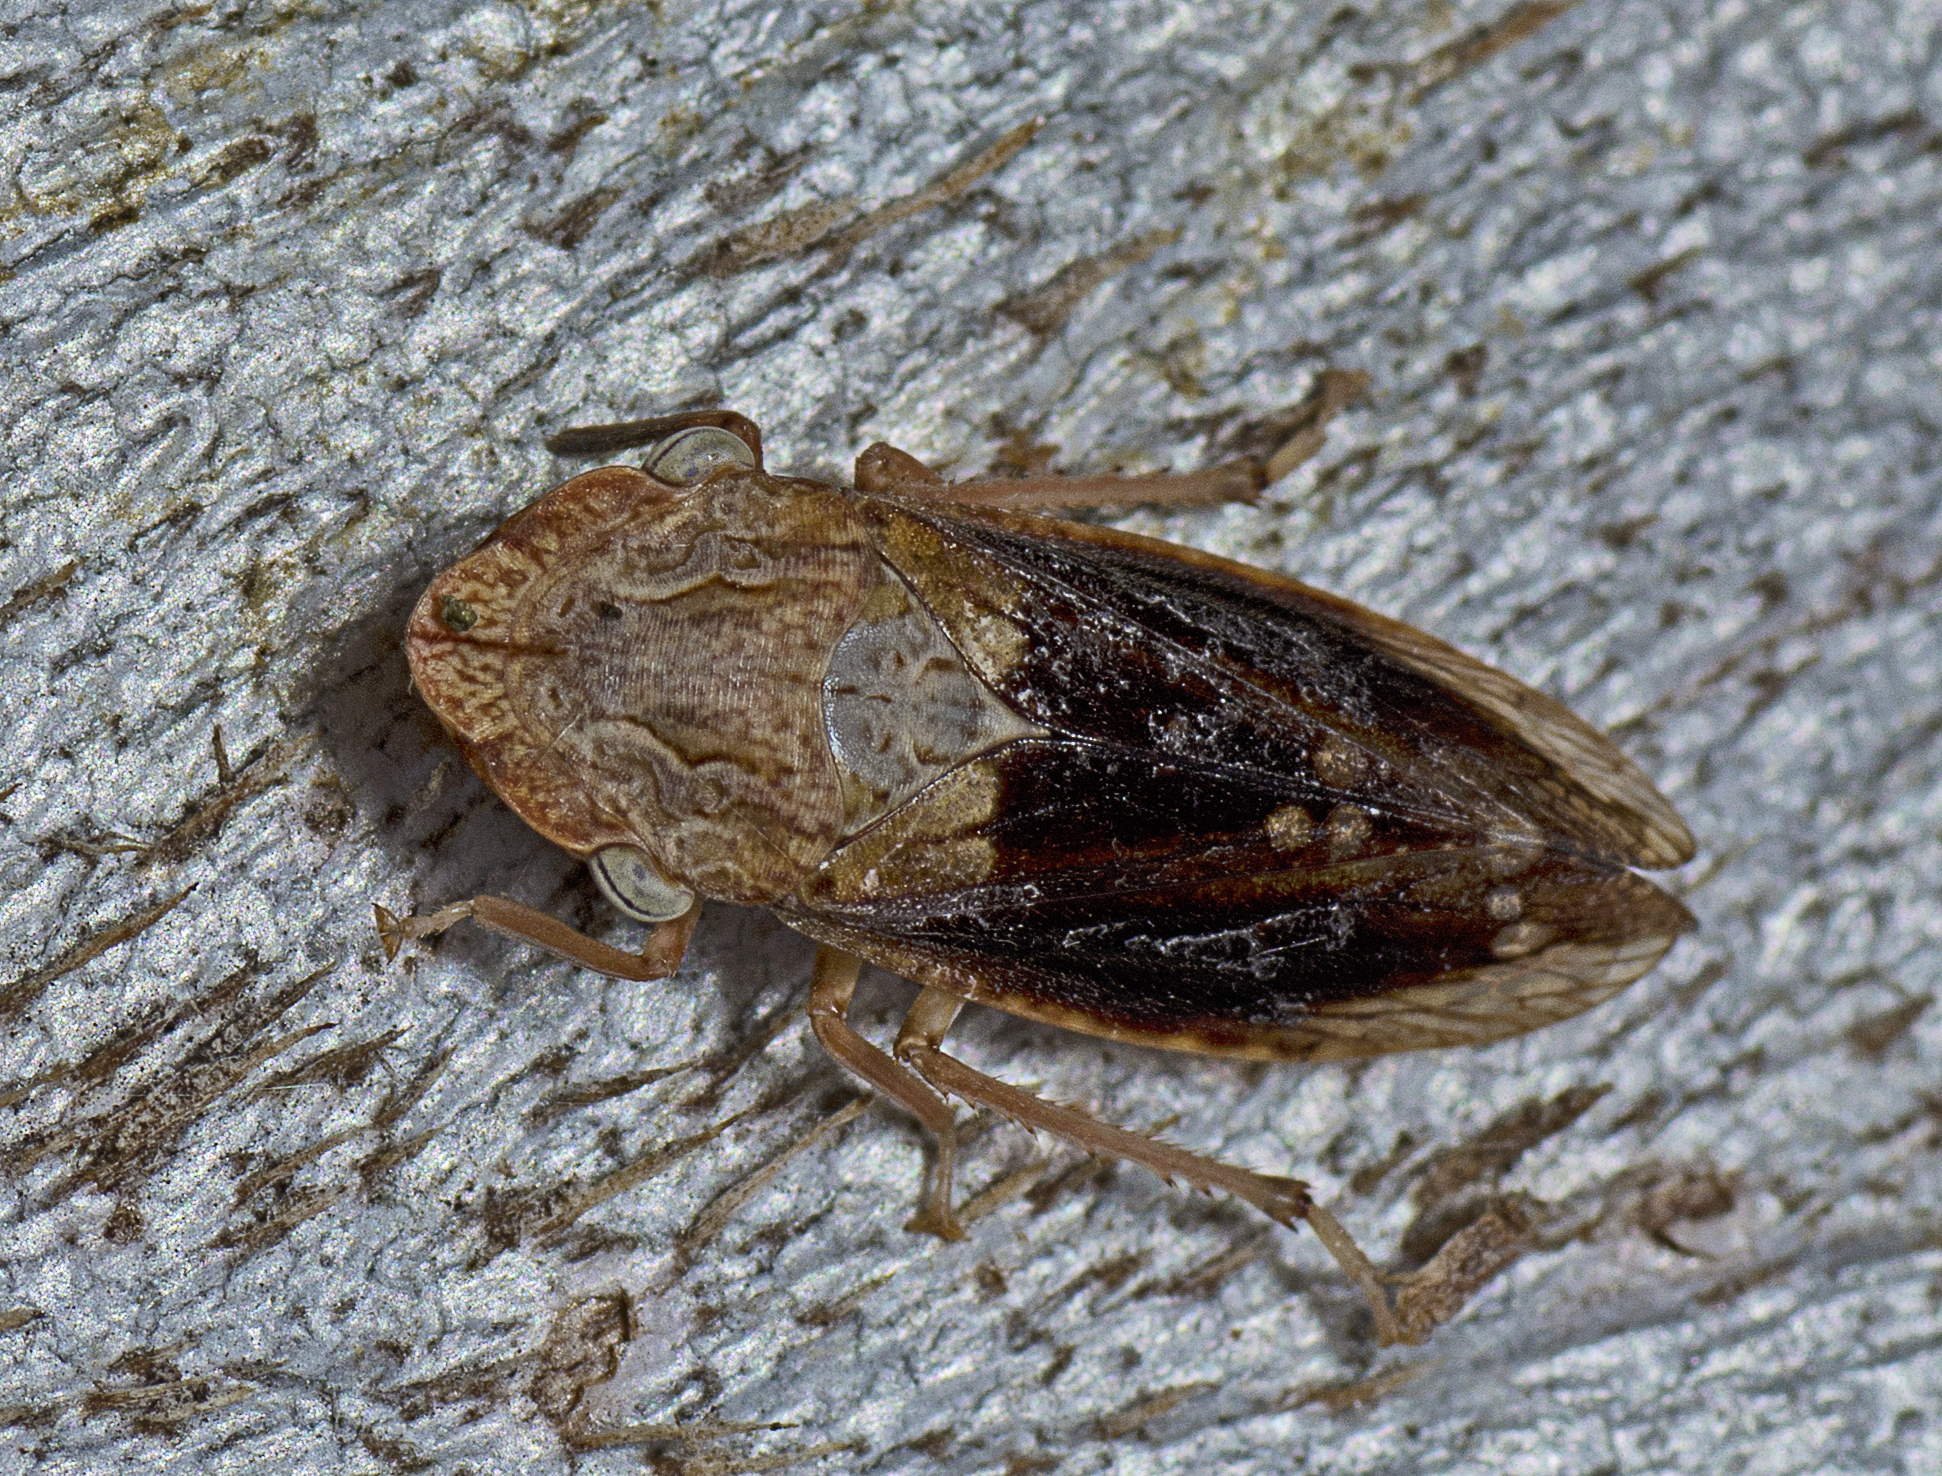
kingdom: Animalia
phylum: Arthropoda
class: Insecta
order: Hemiptera
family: Cicadellidae
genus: Stenocotis
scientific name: Stenocotis depressa
